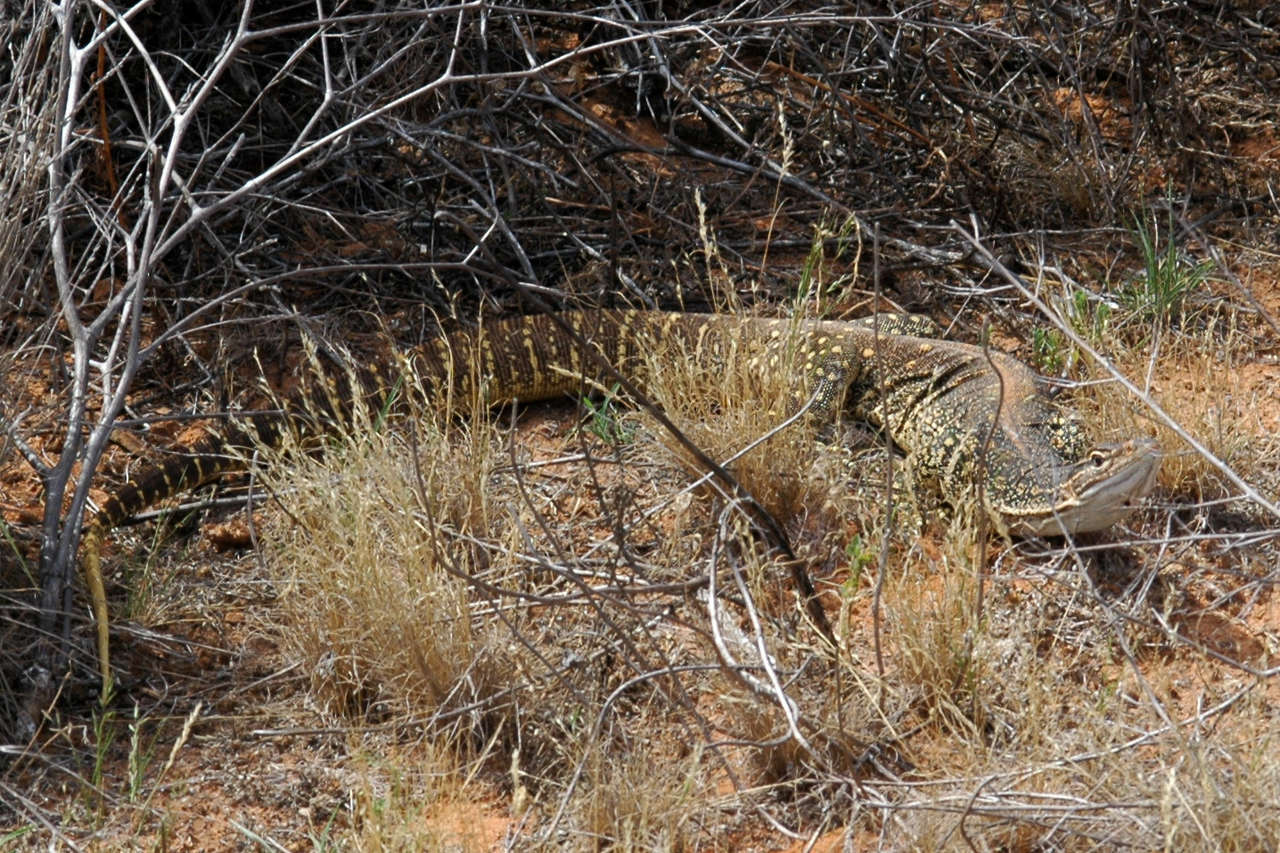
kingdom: Animalia
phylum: Chordata
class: Squamata
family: Varanidae
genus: Varanus
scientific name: Varanus gouldii
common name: Gould's goanna
